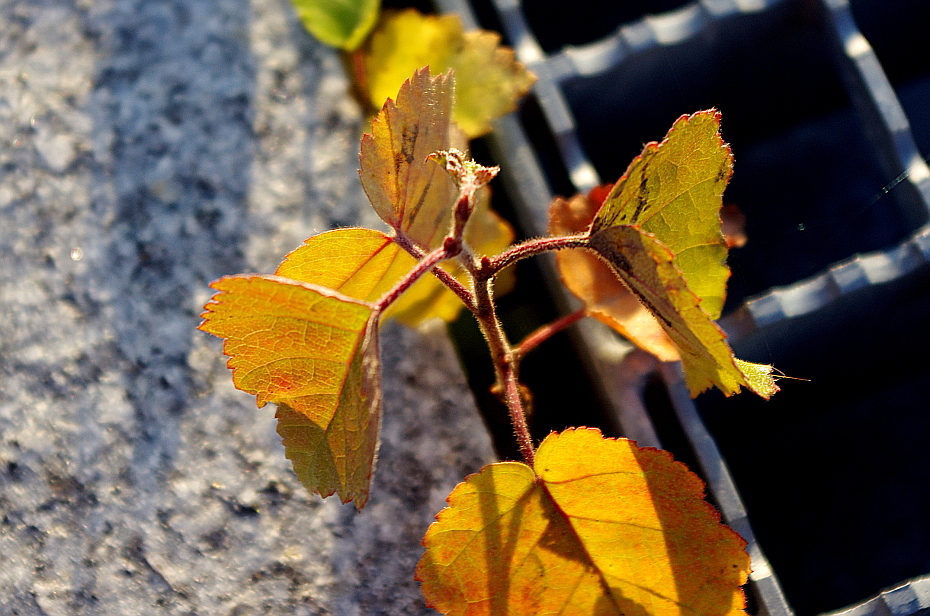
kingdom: Plantae
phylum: Tracheophyta
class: Magnoliopsida
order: Fagales
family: Betulaceae
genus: Betula
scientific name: Betula pubescens
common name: Downy birch
